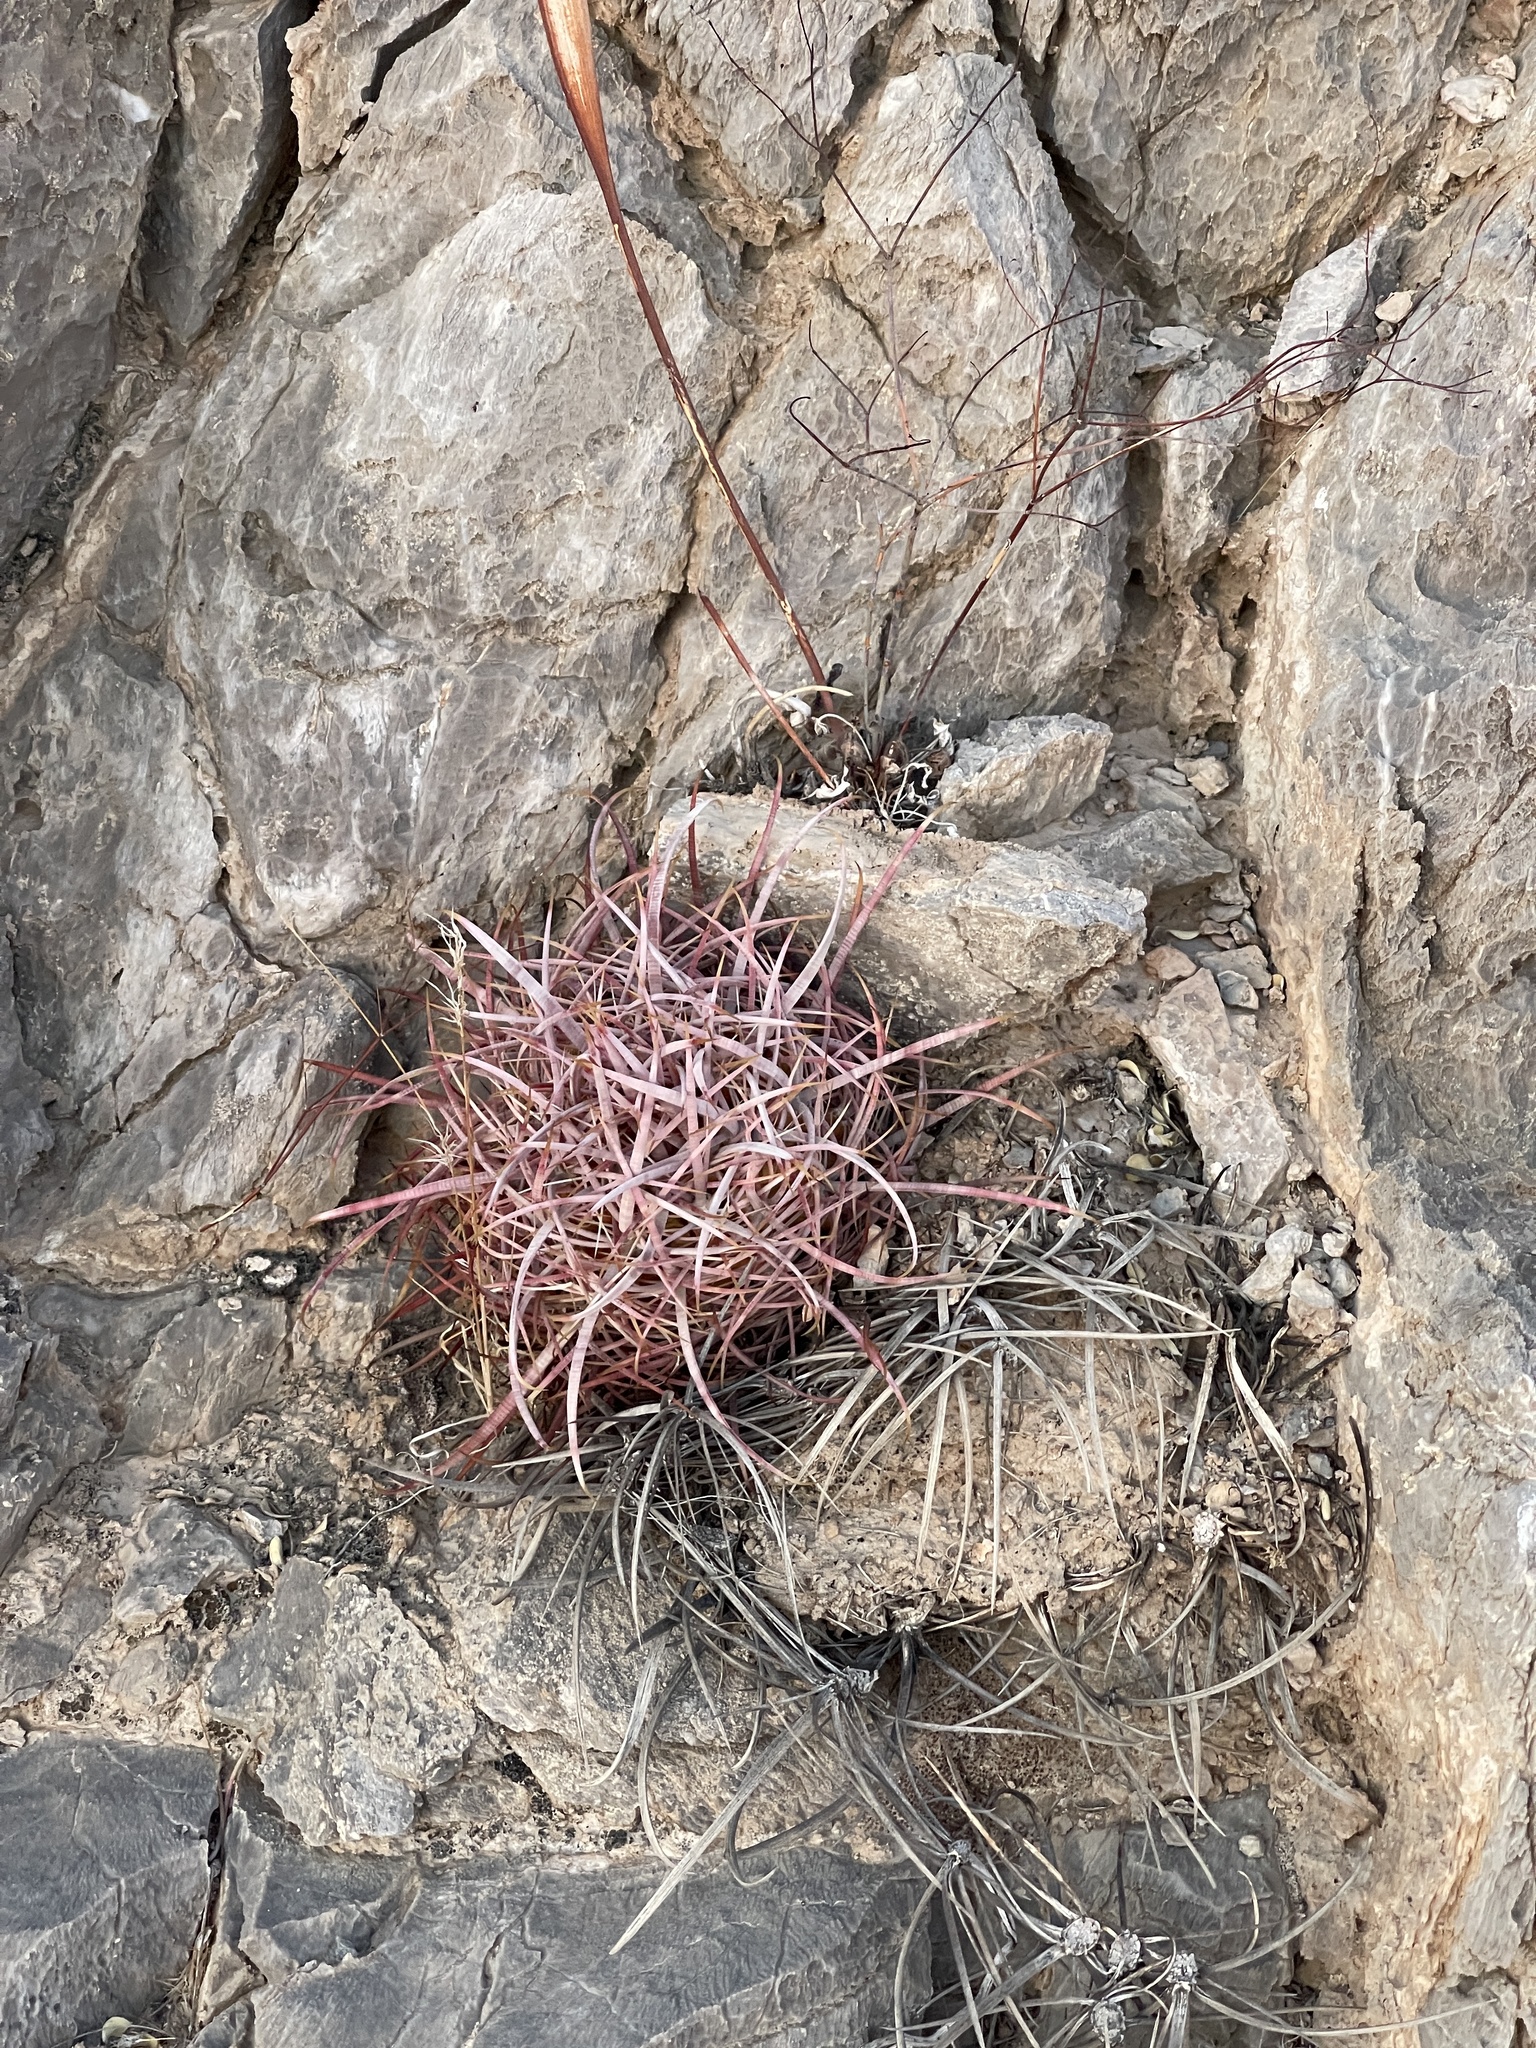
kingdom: Plantae
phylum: Tracheophyta
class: Magnoliopsida
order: Caryophyllales
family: Cactaceae
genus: Ferocactus
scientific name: Ferocactus cylindraceus
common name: California barrel cactus
